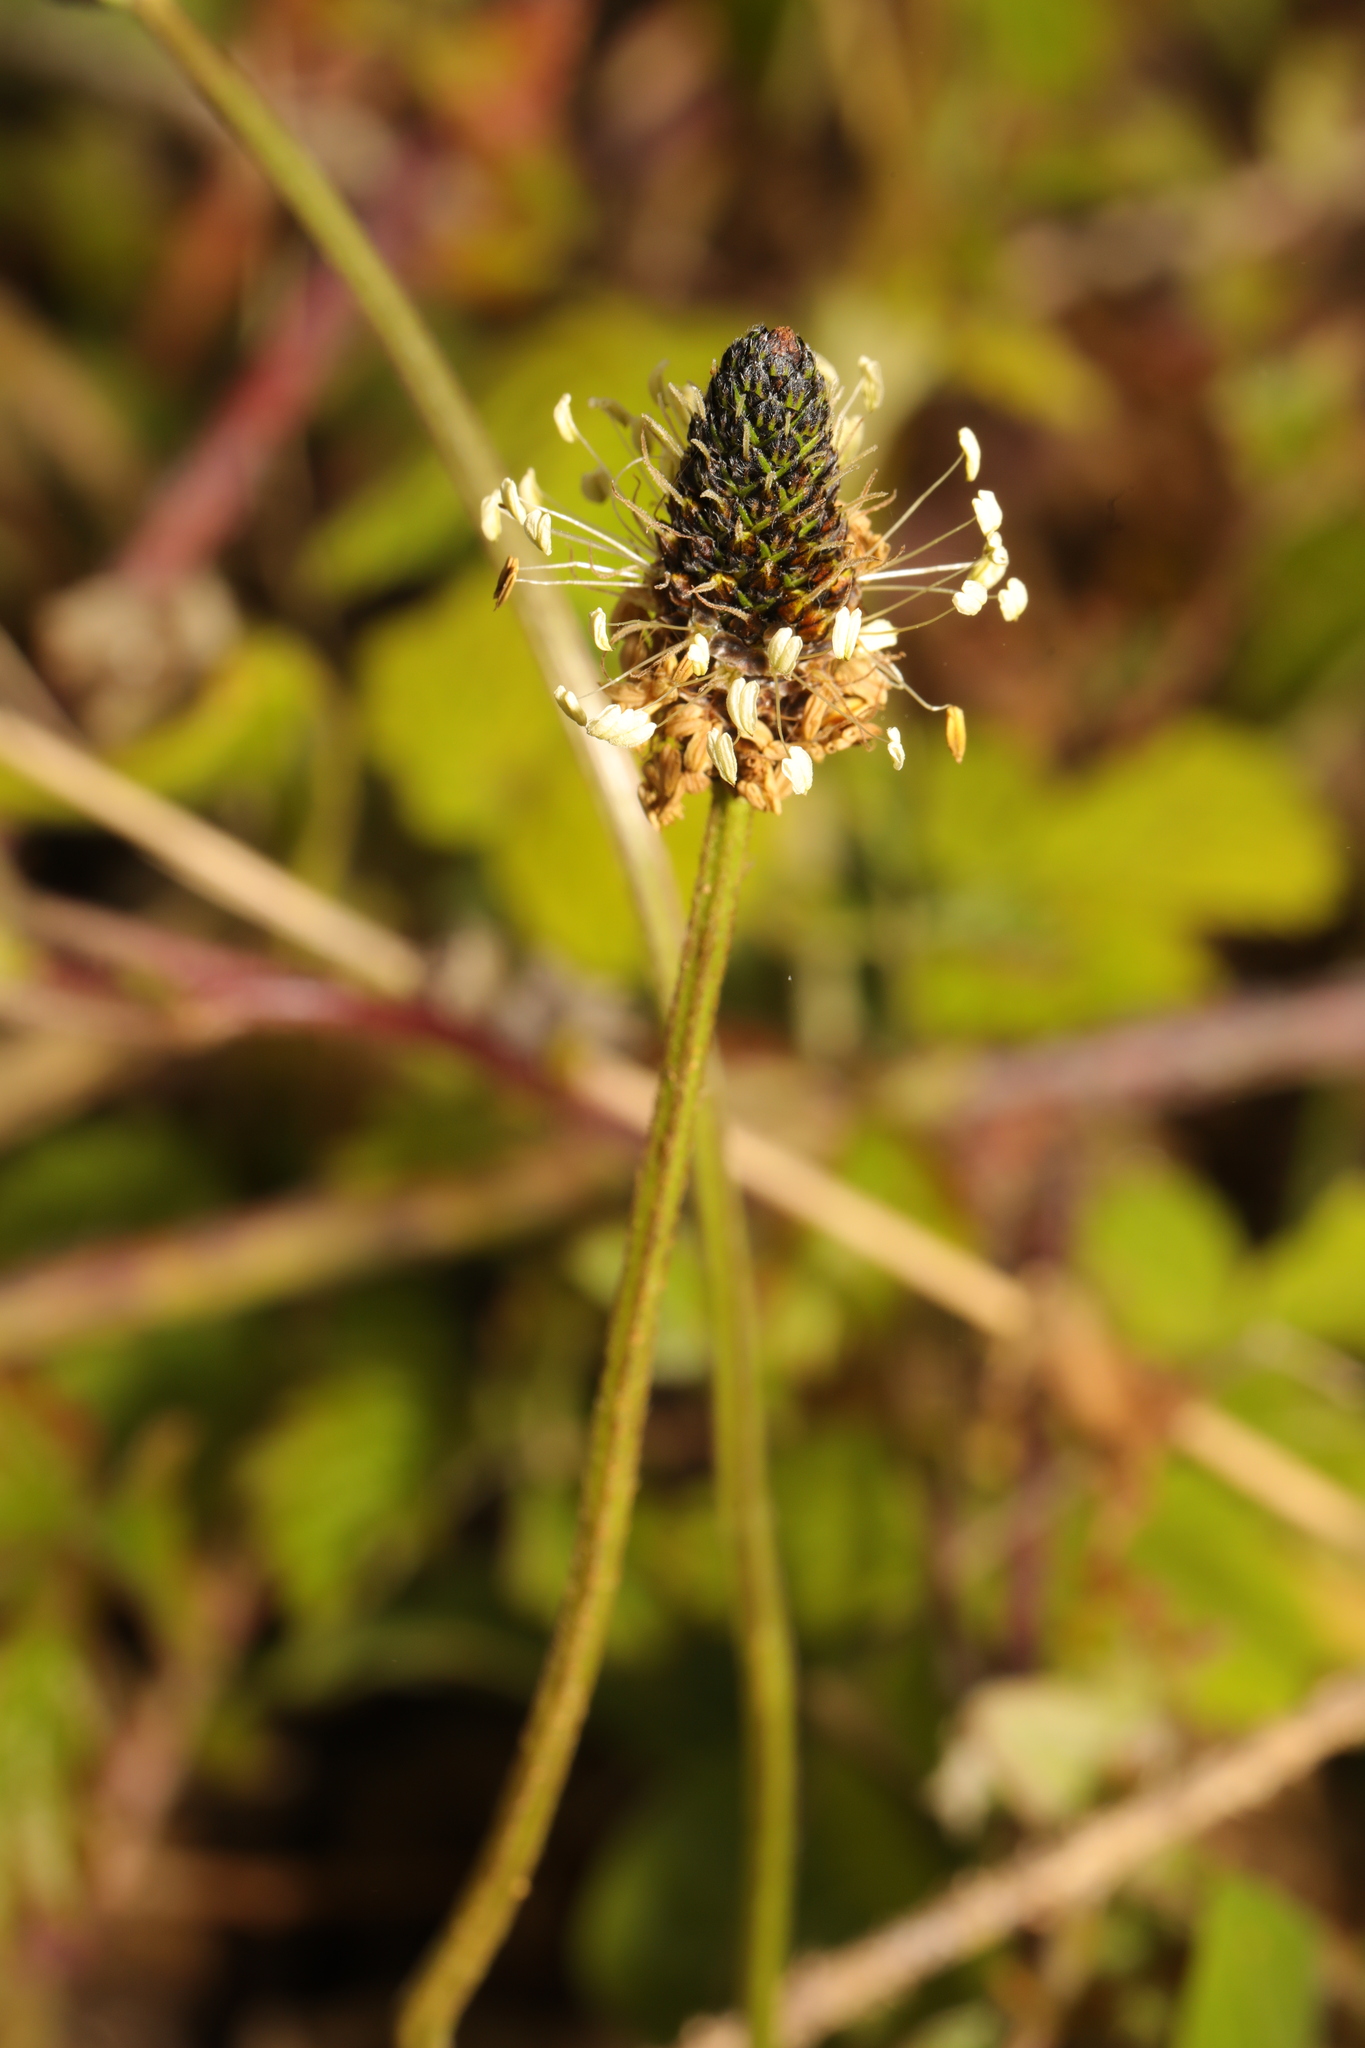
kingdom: Plantae
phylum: Tracheophyta
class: Magnoliopsida
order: Lamiales
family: Plantaginaceae
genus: Plantago
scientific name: Plantago lanceolata
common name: Ribwort plantain
